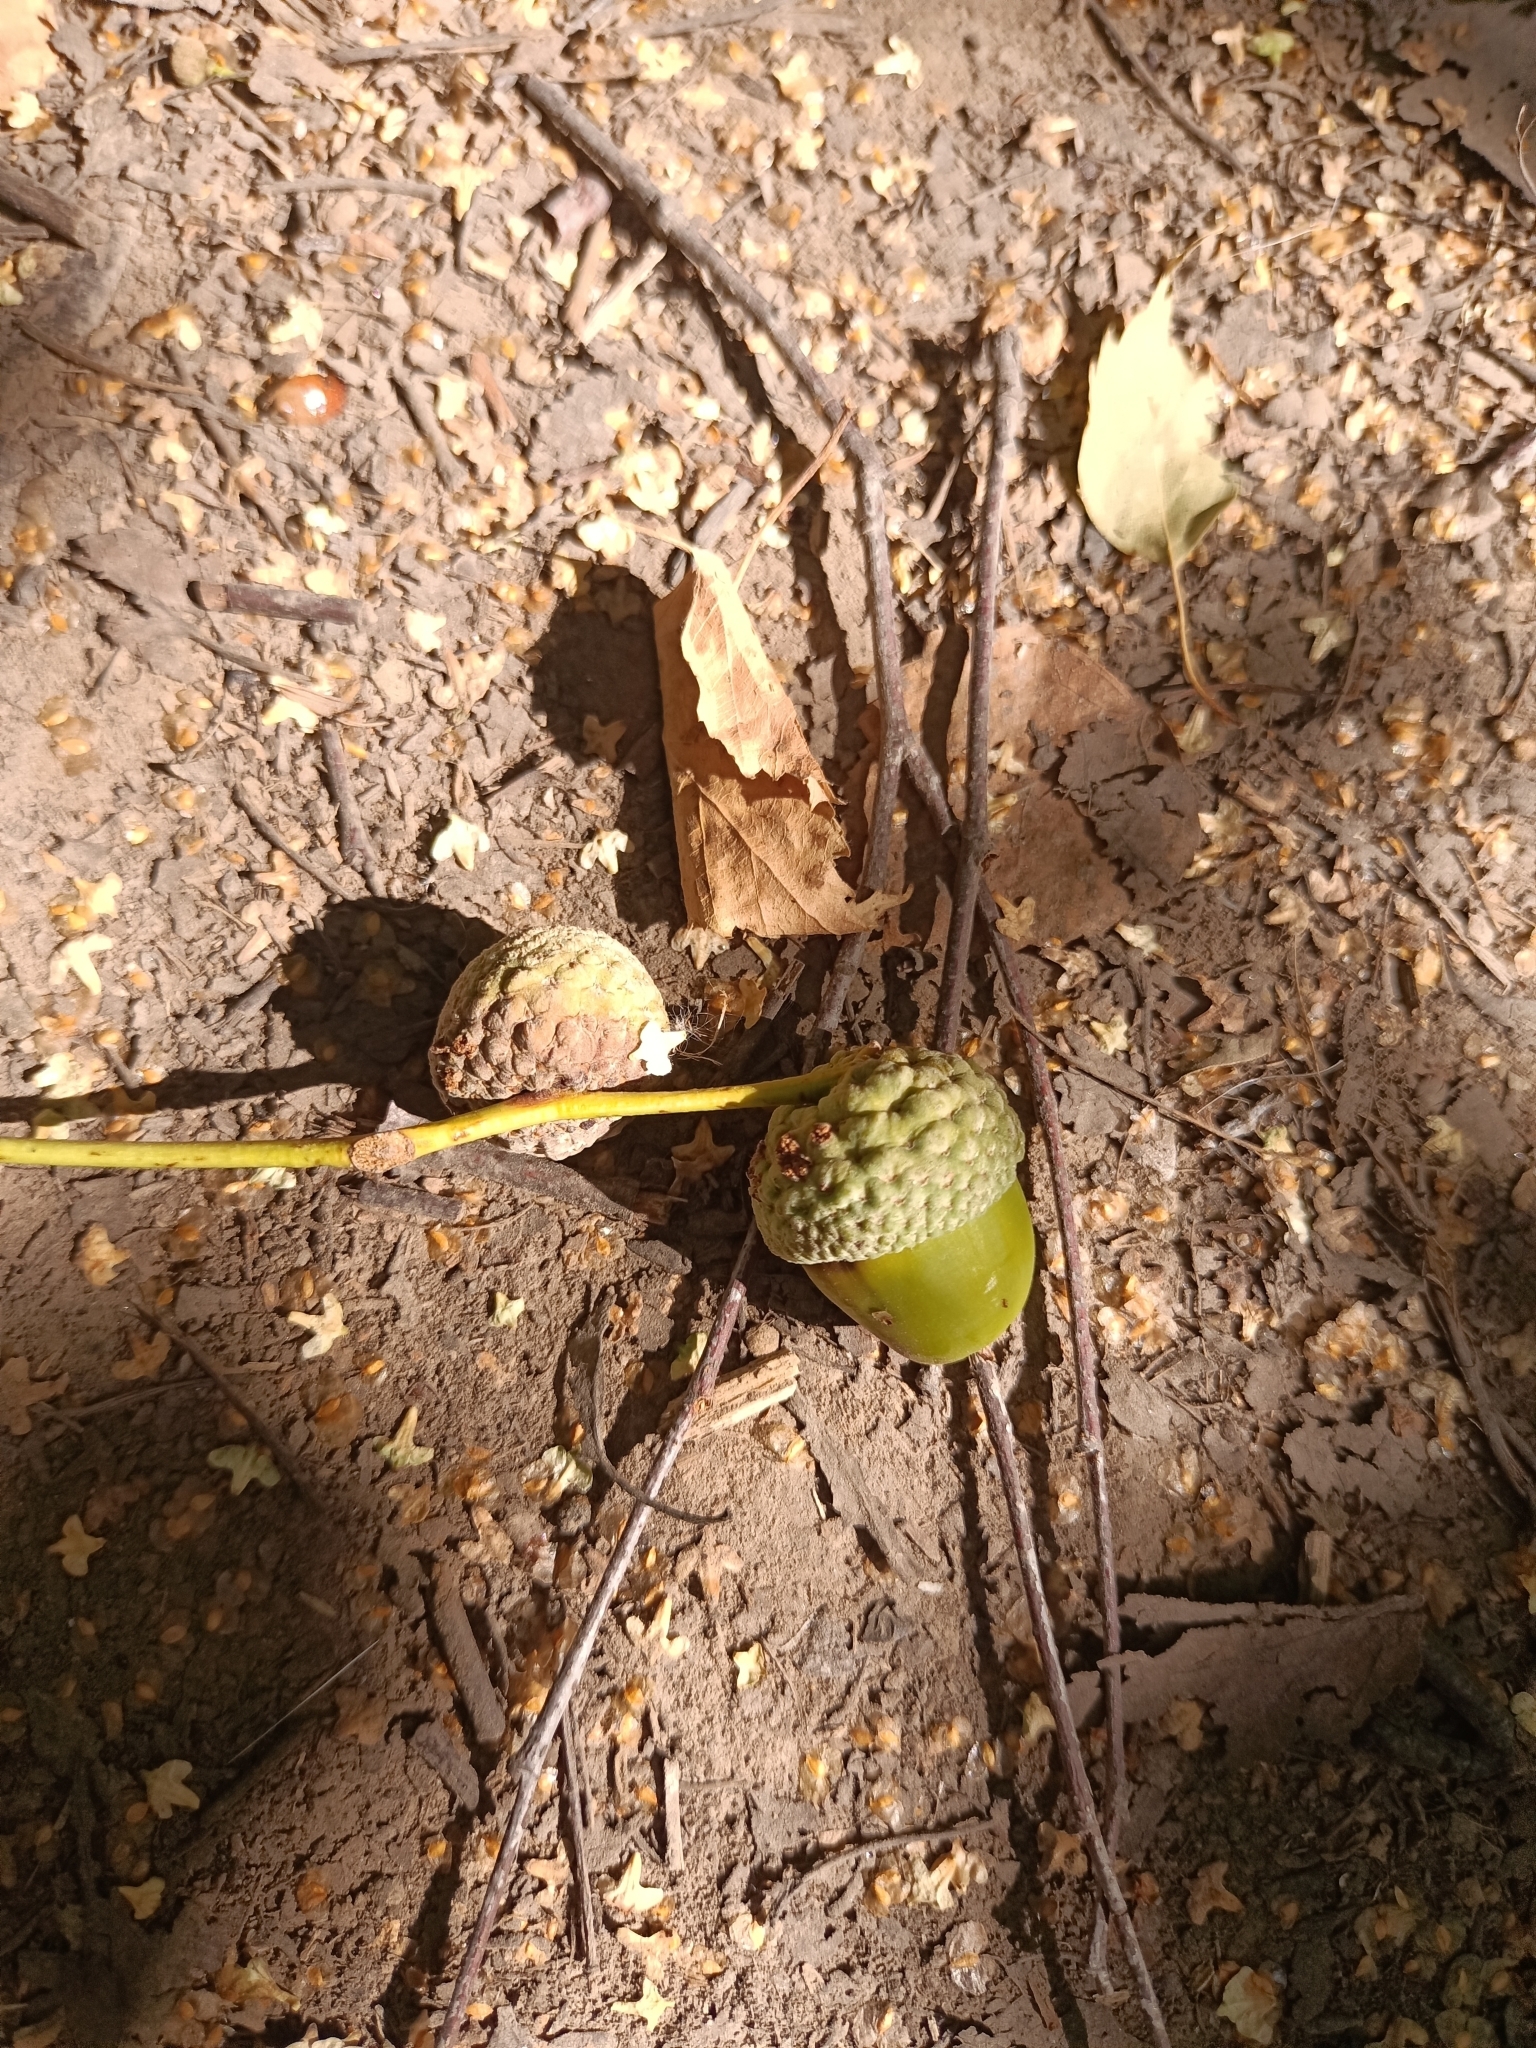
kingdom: Plantae
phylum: Tracheophyta
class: Magnoliopsida
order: Fagales
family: Fagaceae
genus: Quercus
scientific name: Quercus robur
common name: Pedunculate oak
